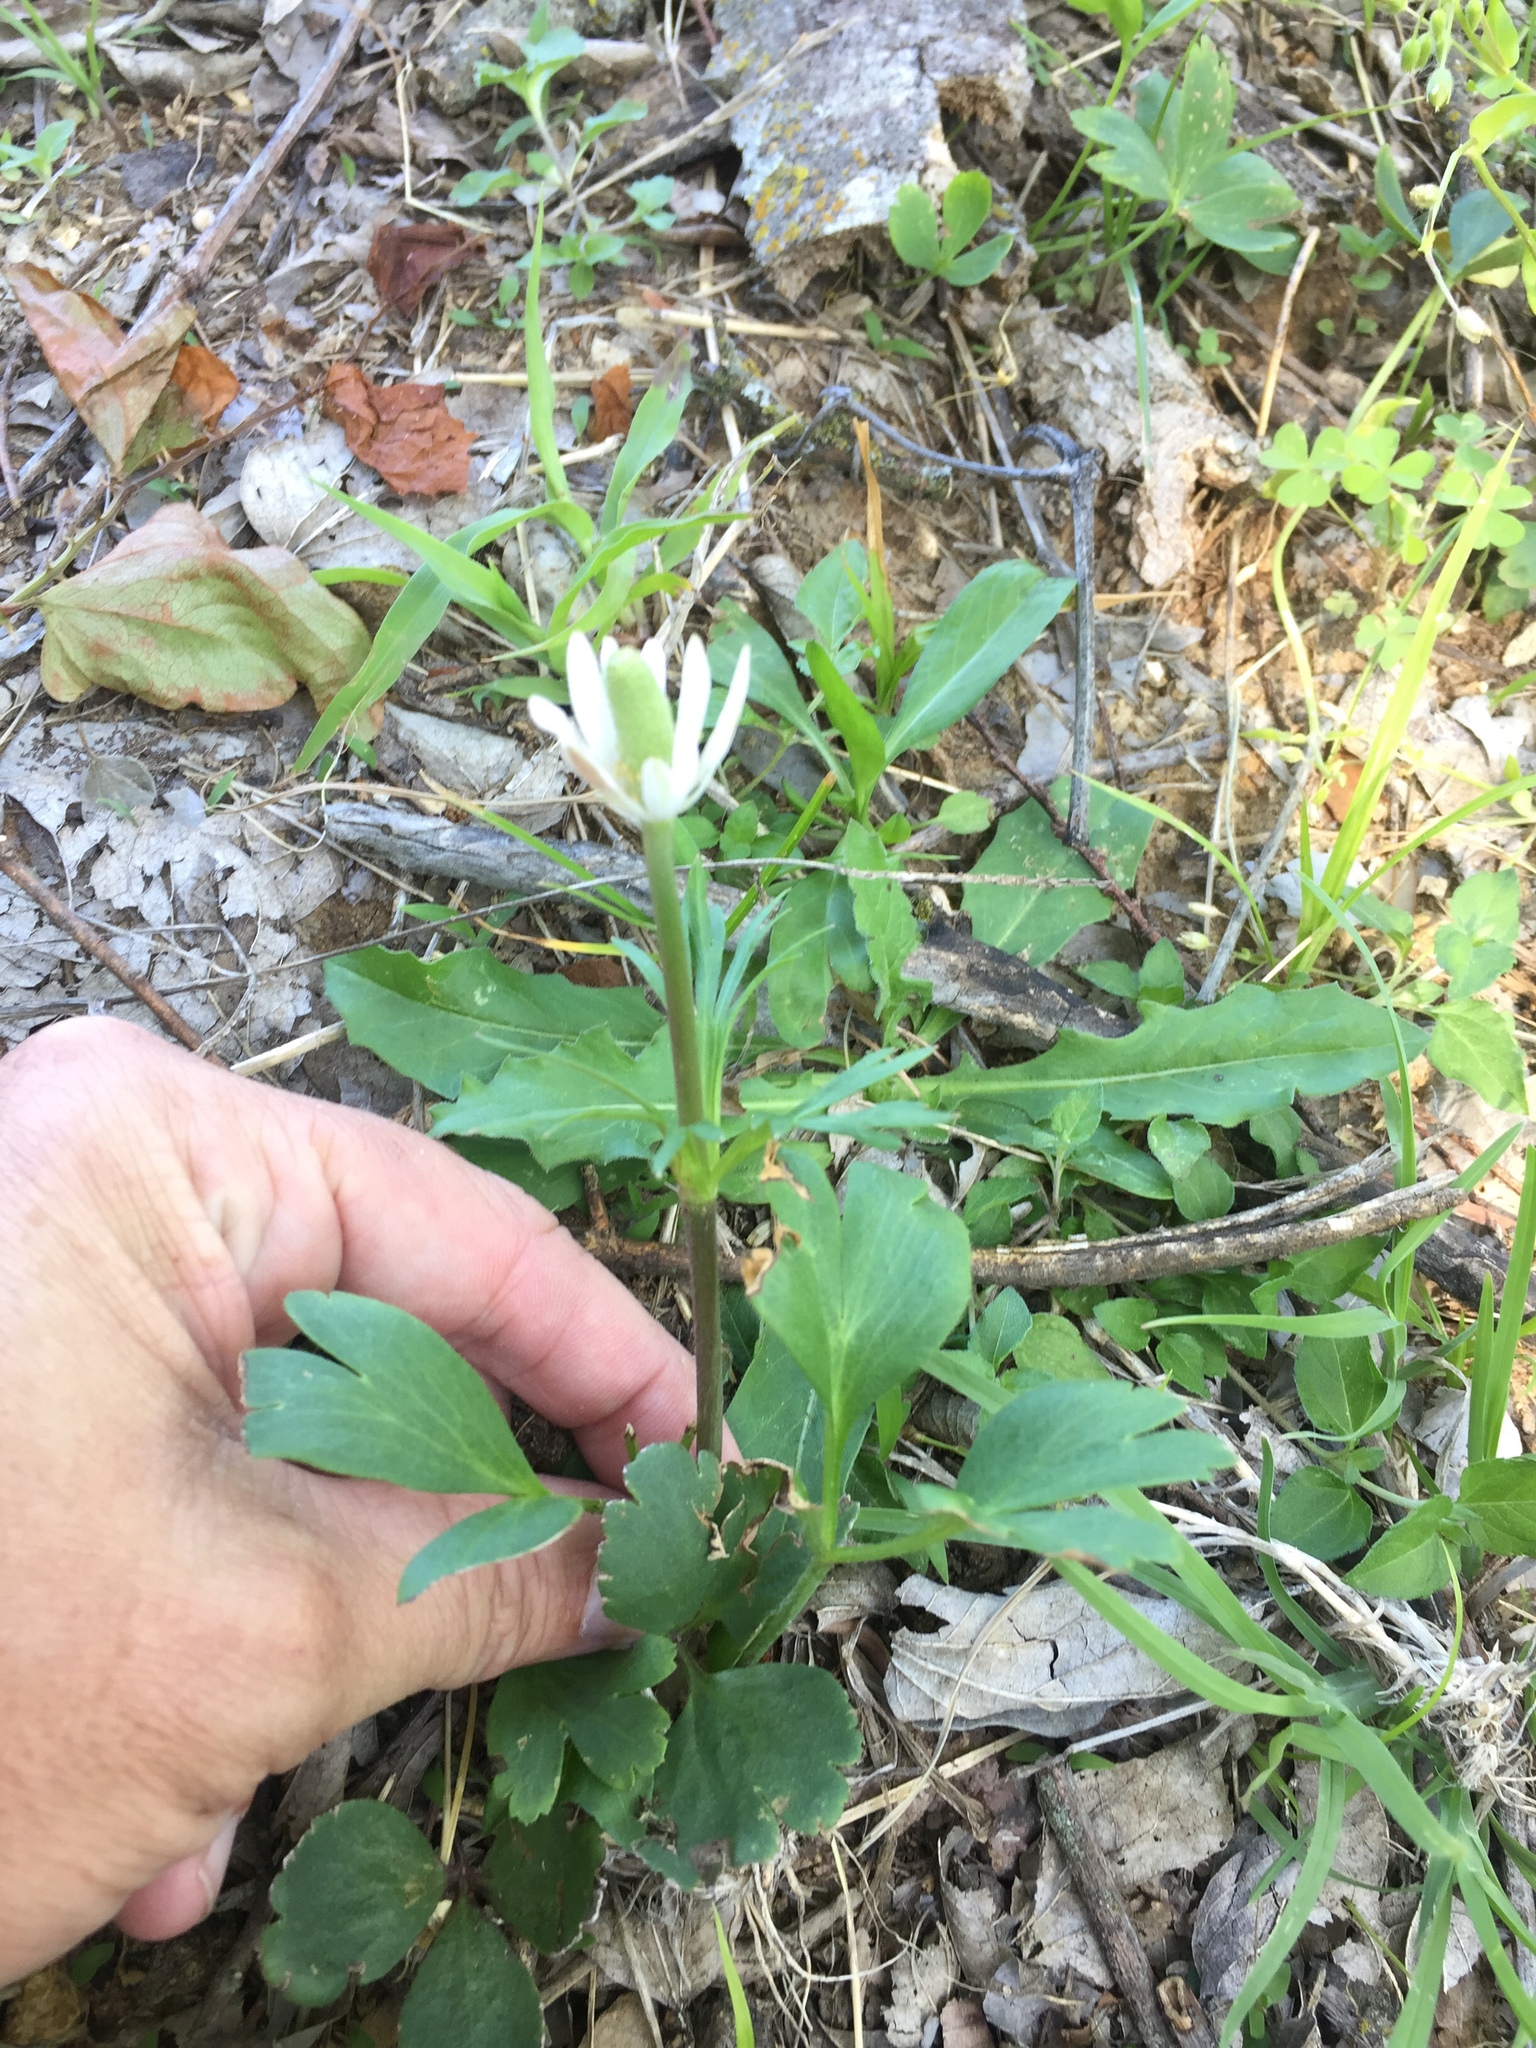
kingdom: Plantae
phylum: Tracheophyta
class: Magnoliopsida
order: Ranunculales
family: Ranunculaceae
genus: Anemone
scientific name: Anemone berlandieri
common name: Ten-petal anemone
